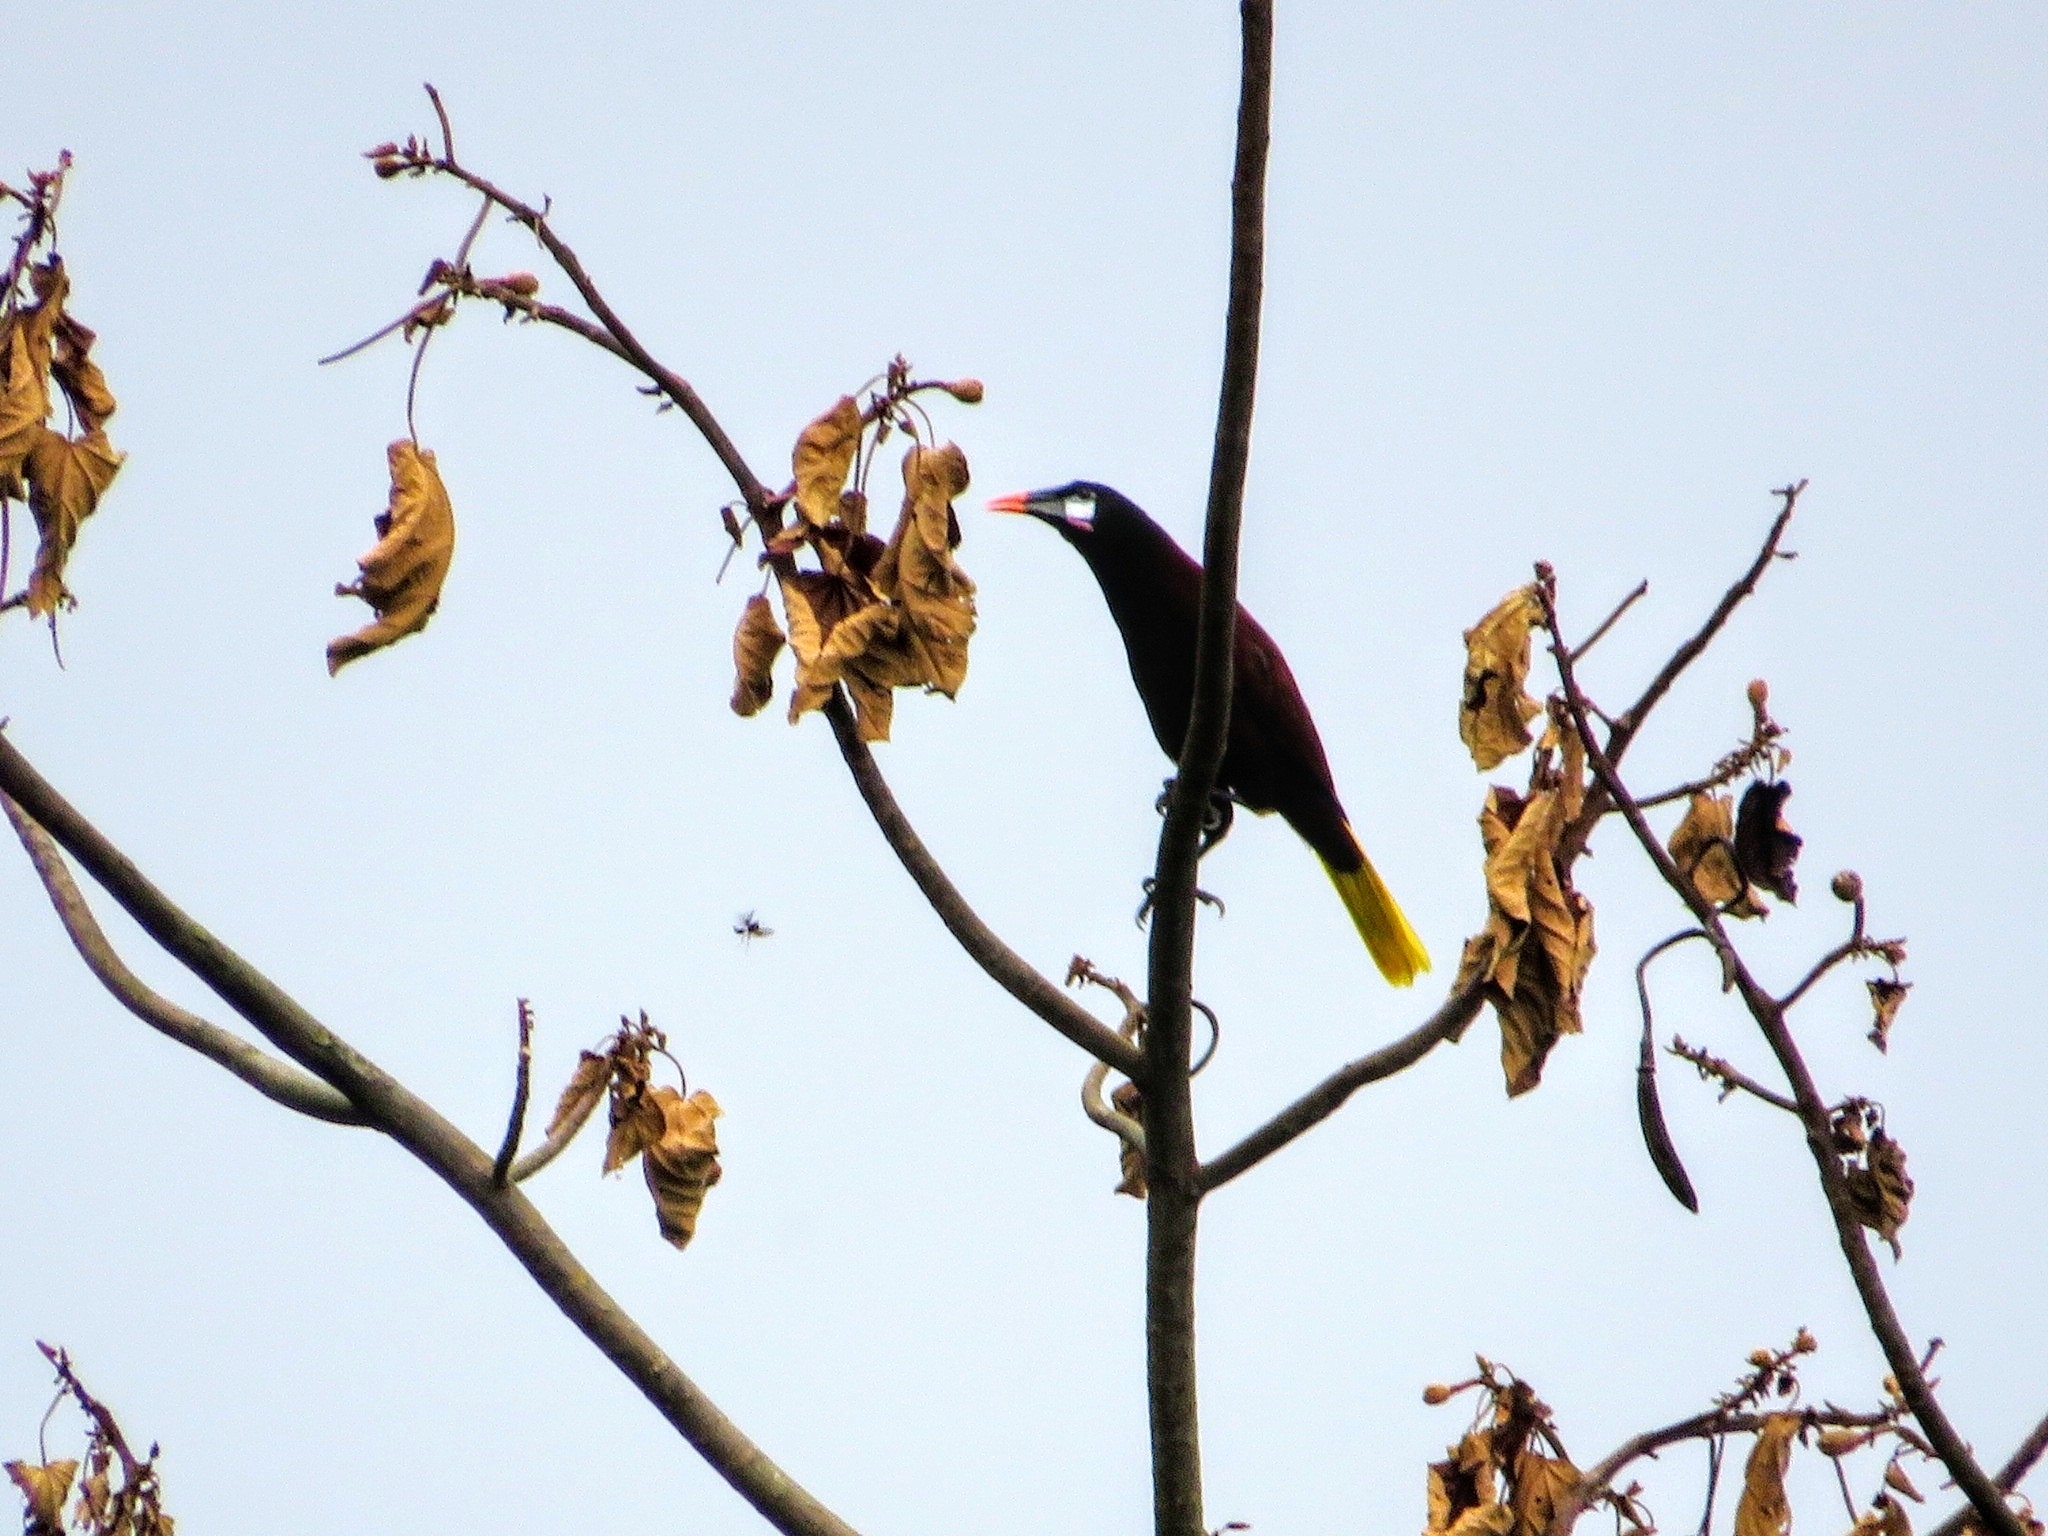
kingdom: Animalia
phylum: Chordata
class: Aves
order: Passeriformes
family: Icteridae
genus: Psarocolius
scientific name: Psarocolius montezuma
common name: Montezuma oropendola
